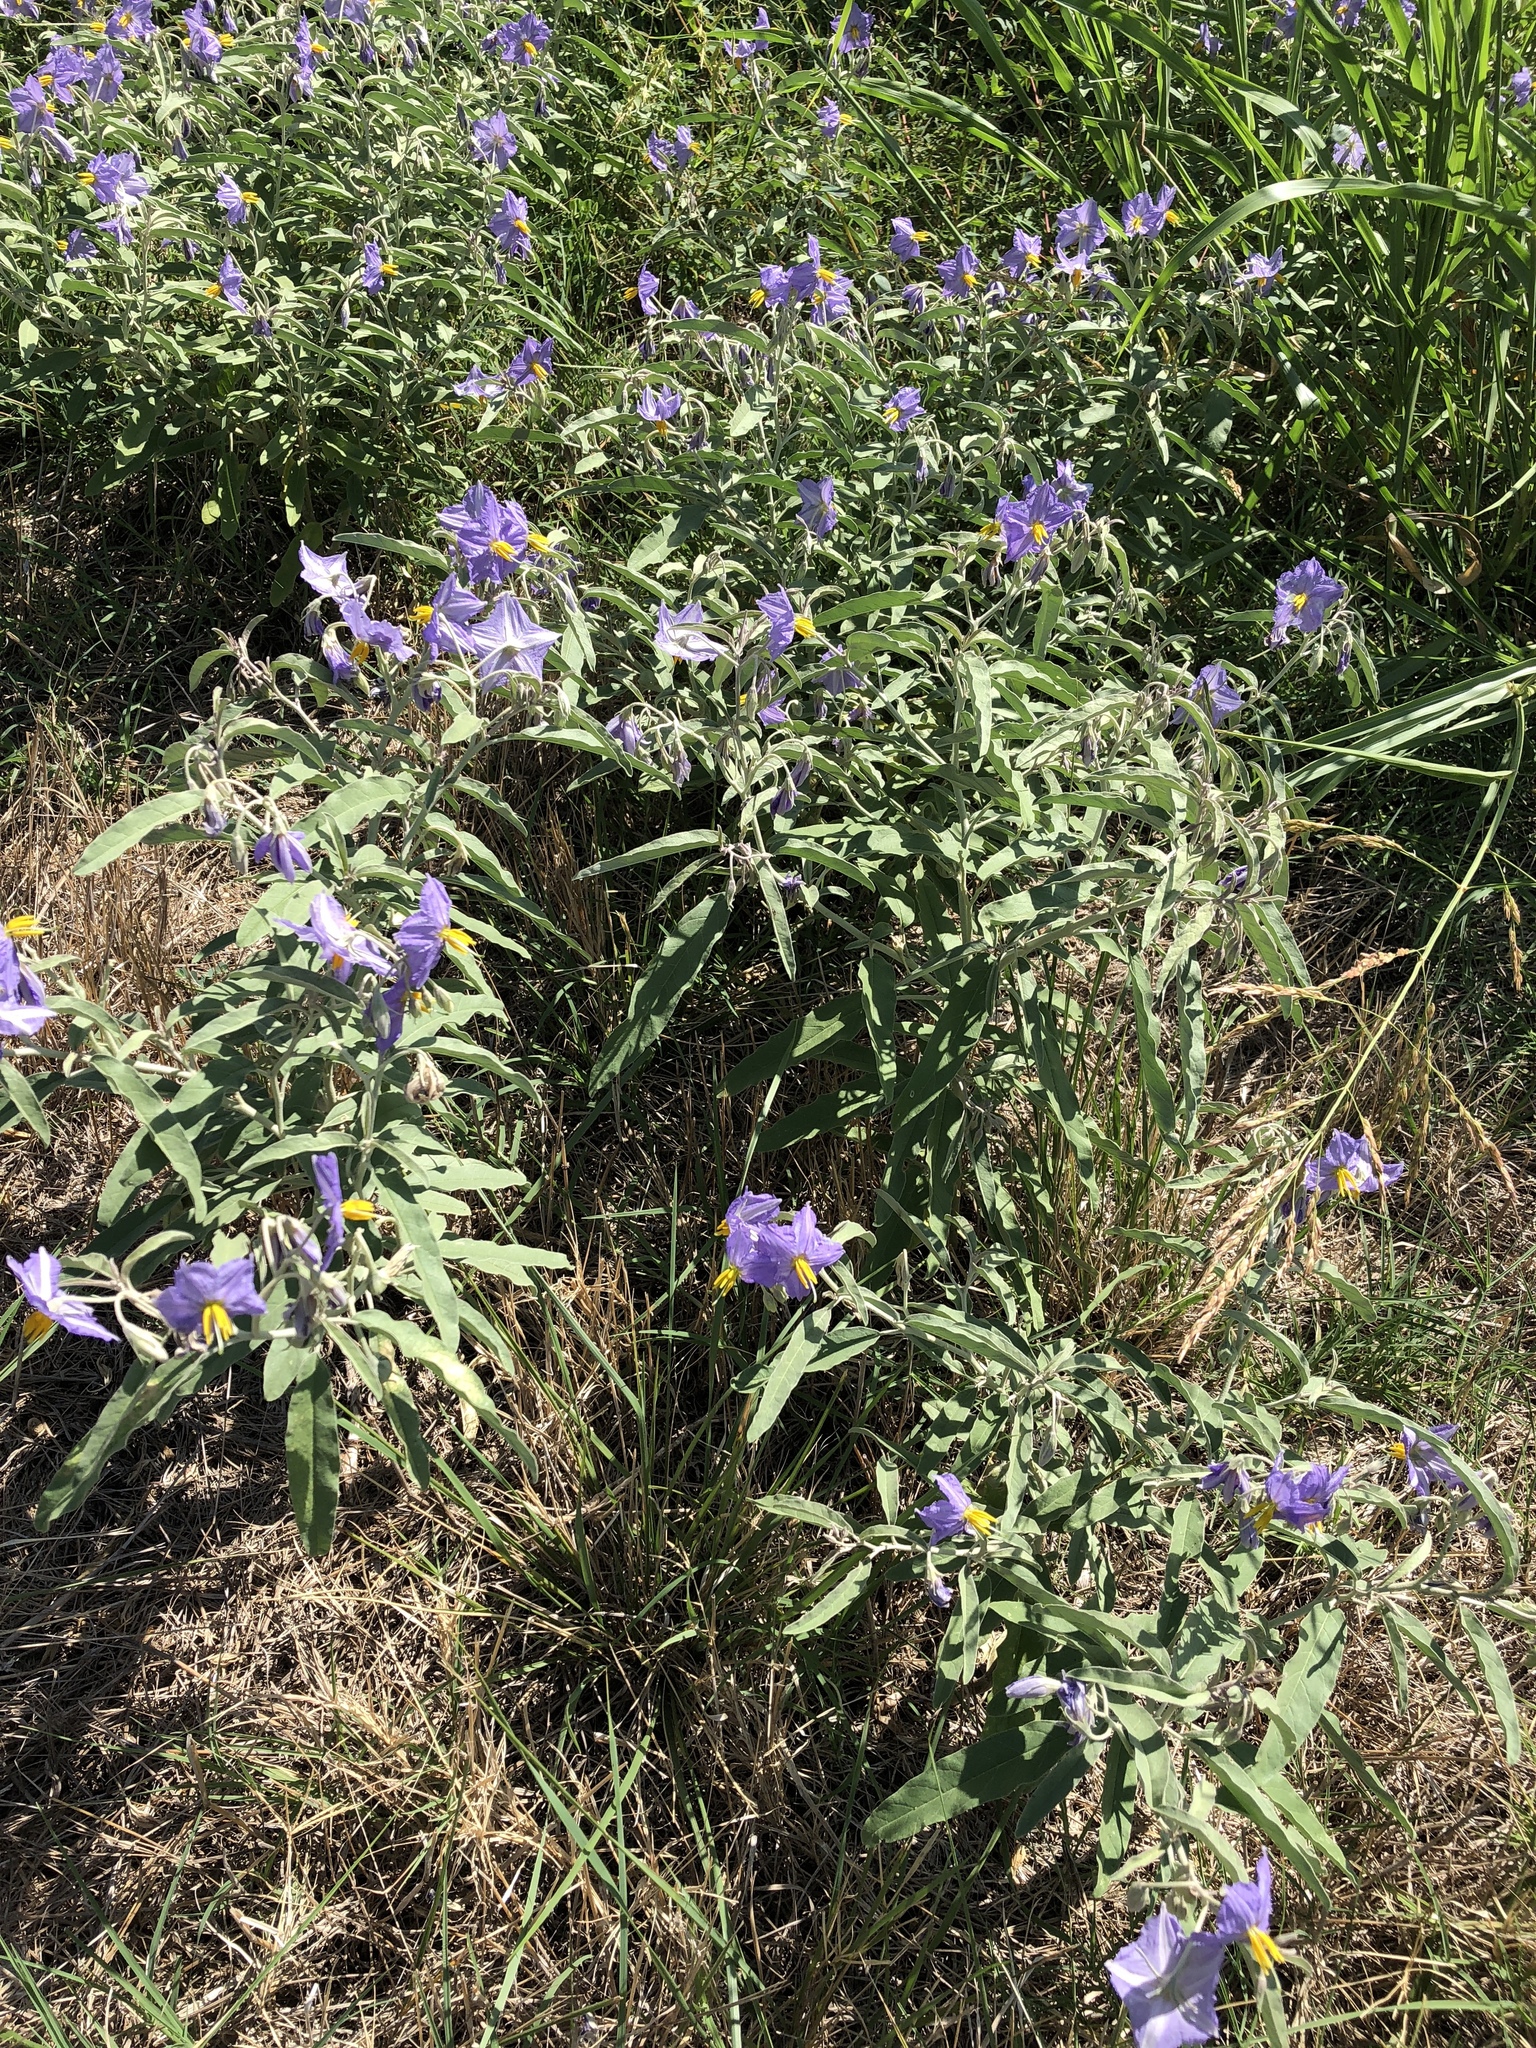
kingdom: Plantae
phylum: Tracheophyta
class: Magnoliopsida
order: Solanales
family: Solanaceae
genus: Solanum
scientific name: Solanum elaeagnifolium
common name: Silverleaf nightshade
